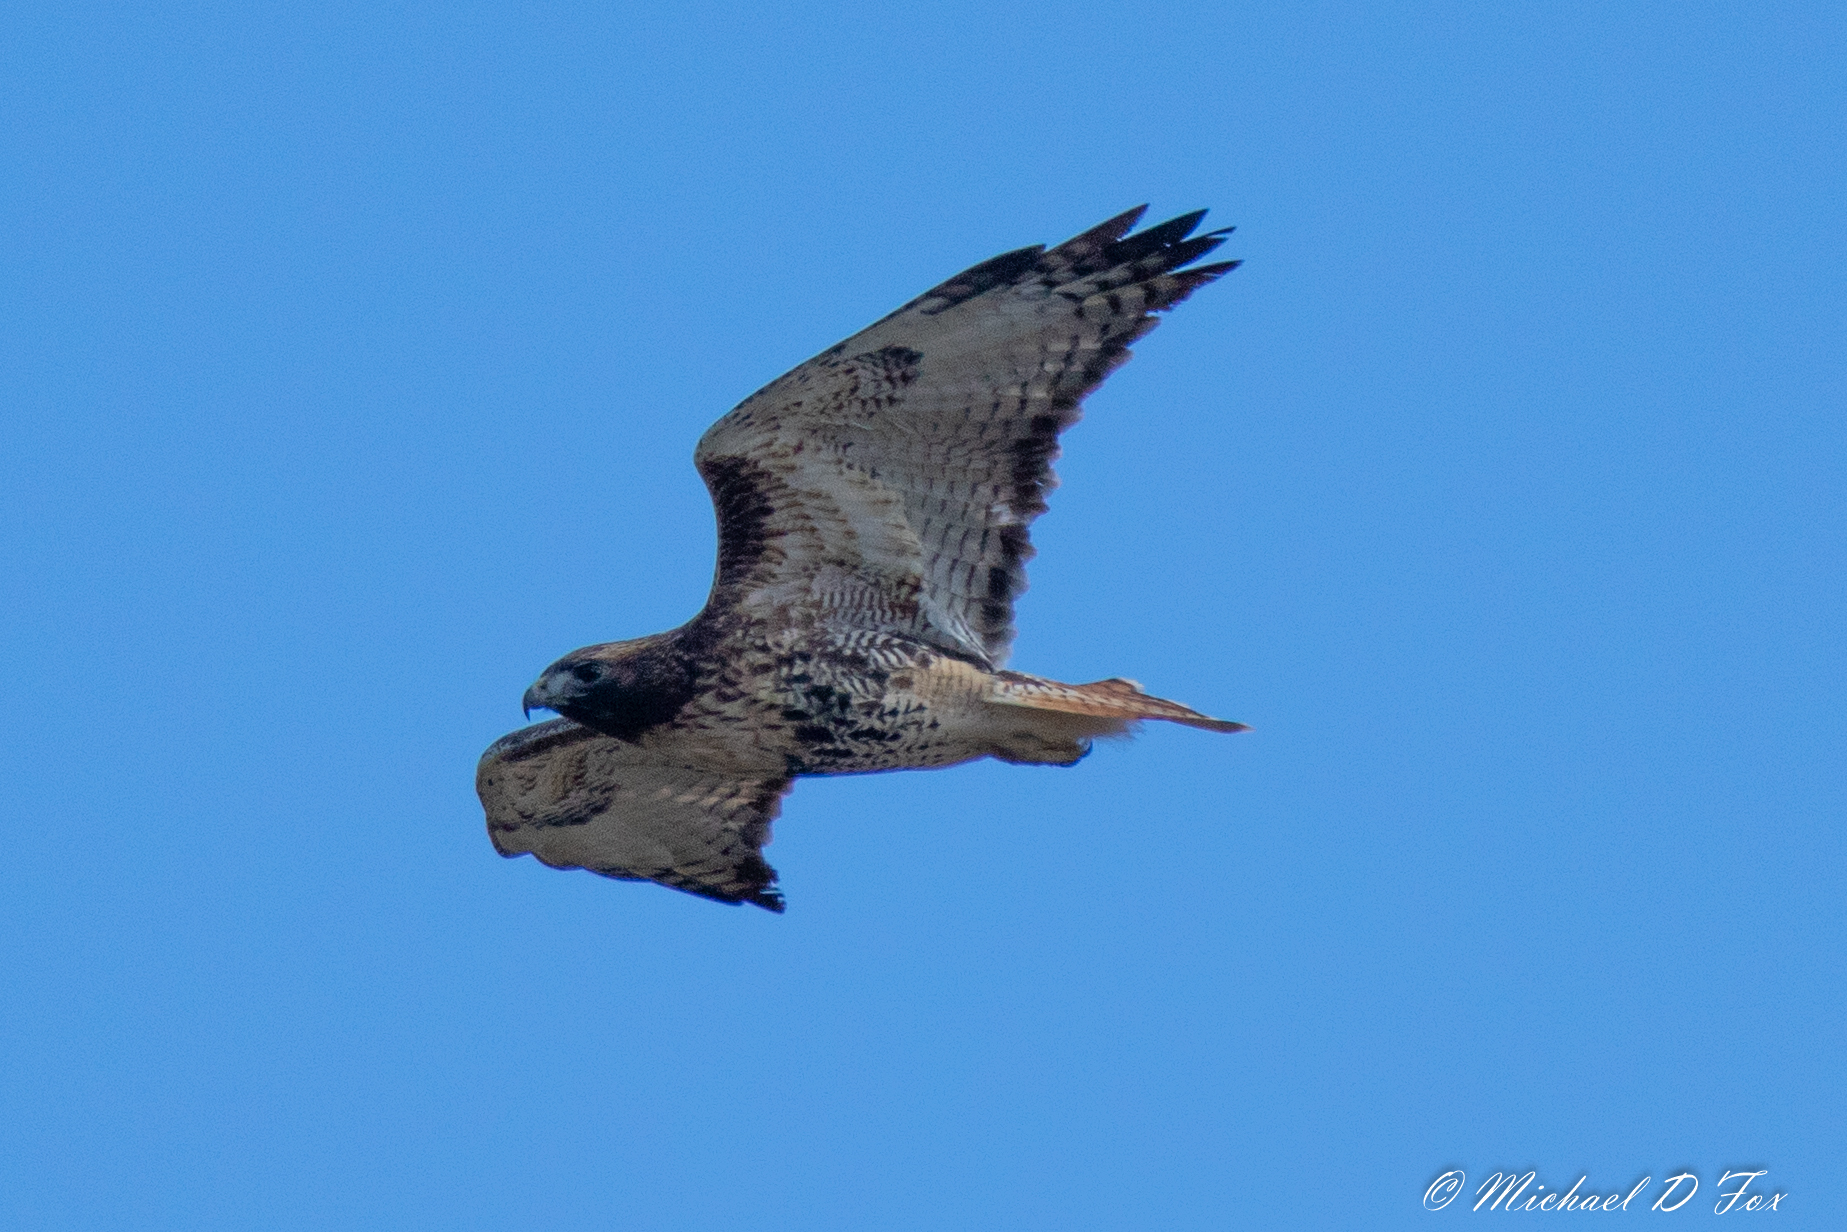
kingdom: Animalia
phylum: Chordata
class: Aves
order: Accipitriformes
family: Accipitridae
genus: Buteo
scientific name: Buteo jamaicensis
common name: Red-tailed hawk
